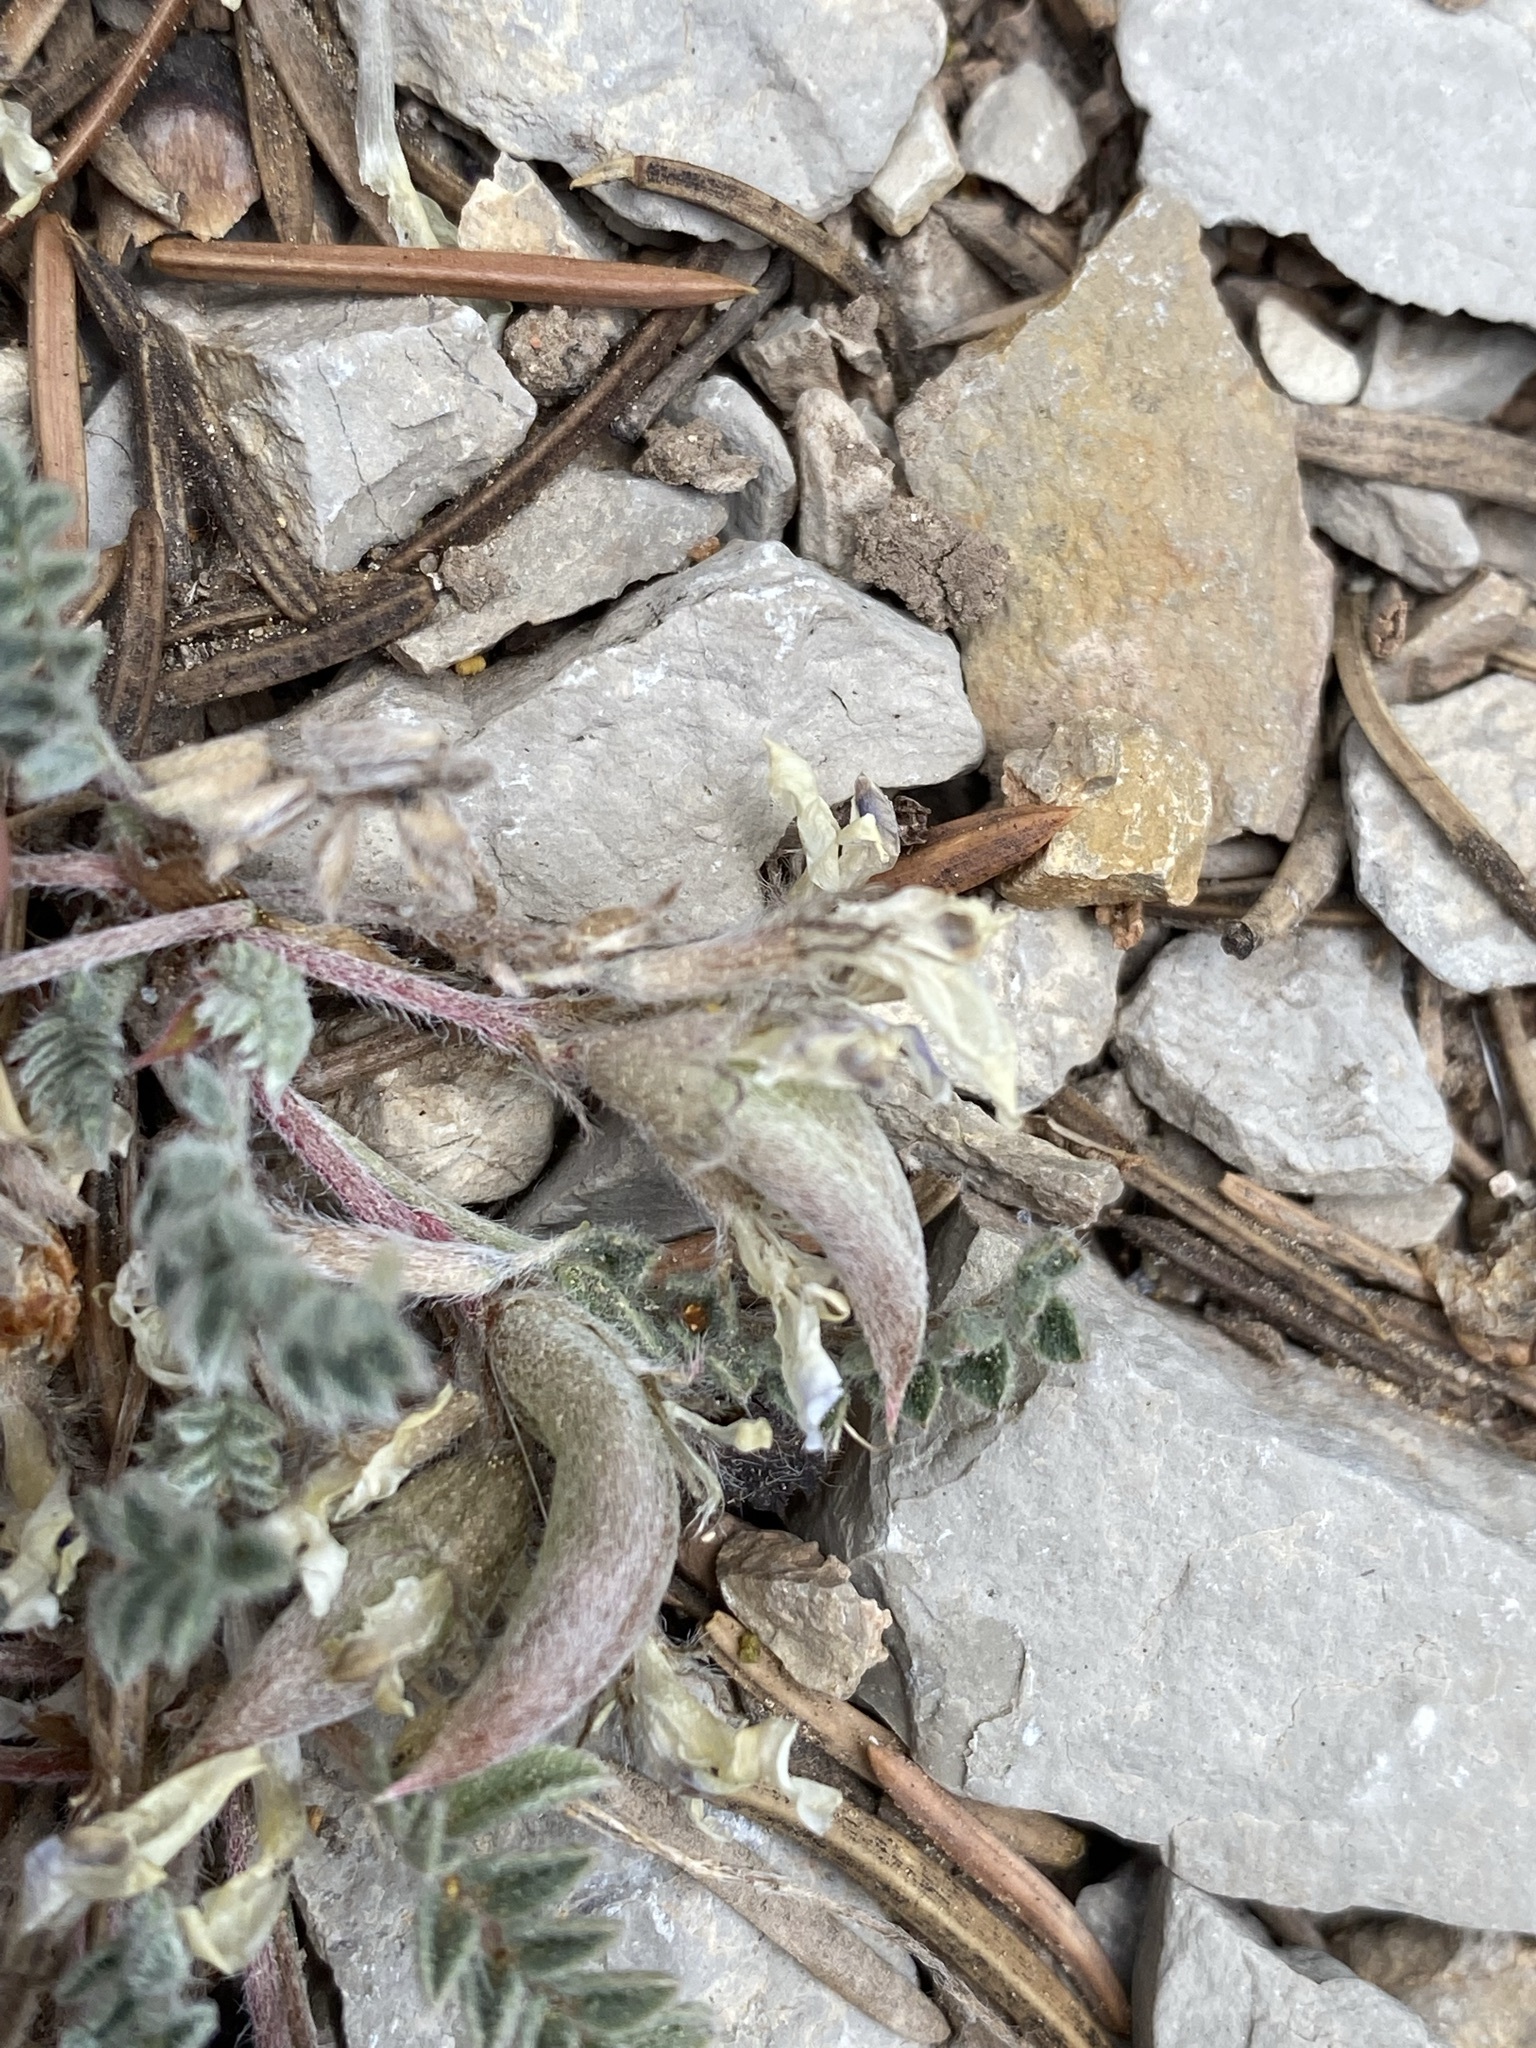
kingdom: Plantae
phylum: Tracheophyta
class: Magnoliopsida
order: Fabales
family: Fabaceae
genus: Astragalus
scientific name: Astragalus argophyllus
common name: Silverleaf milk-vetch
